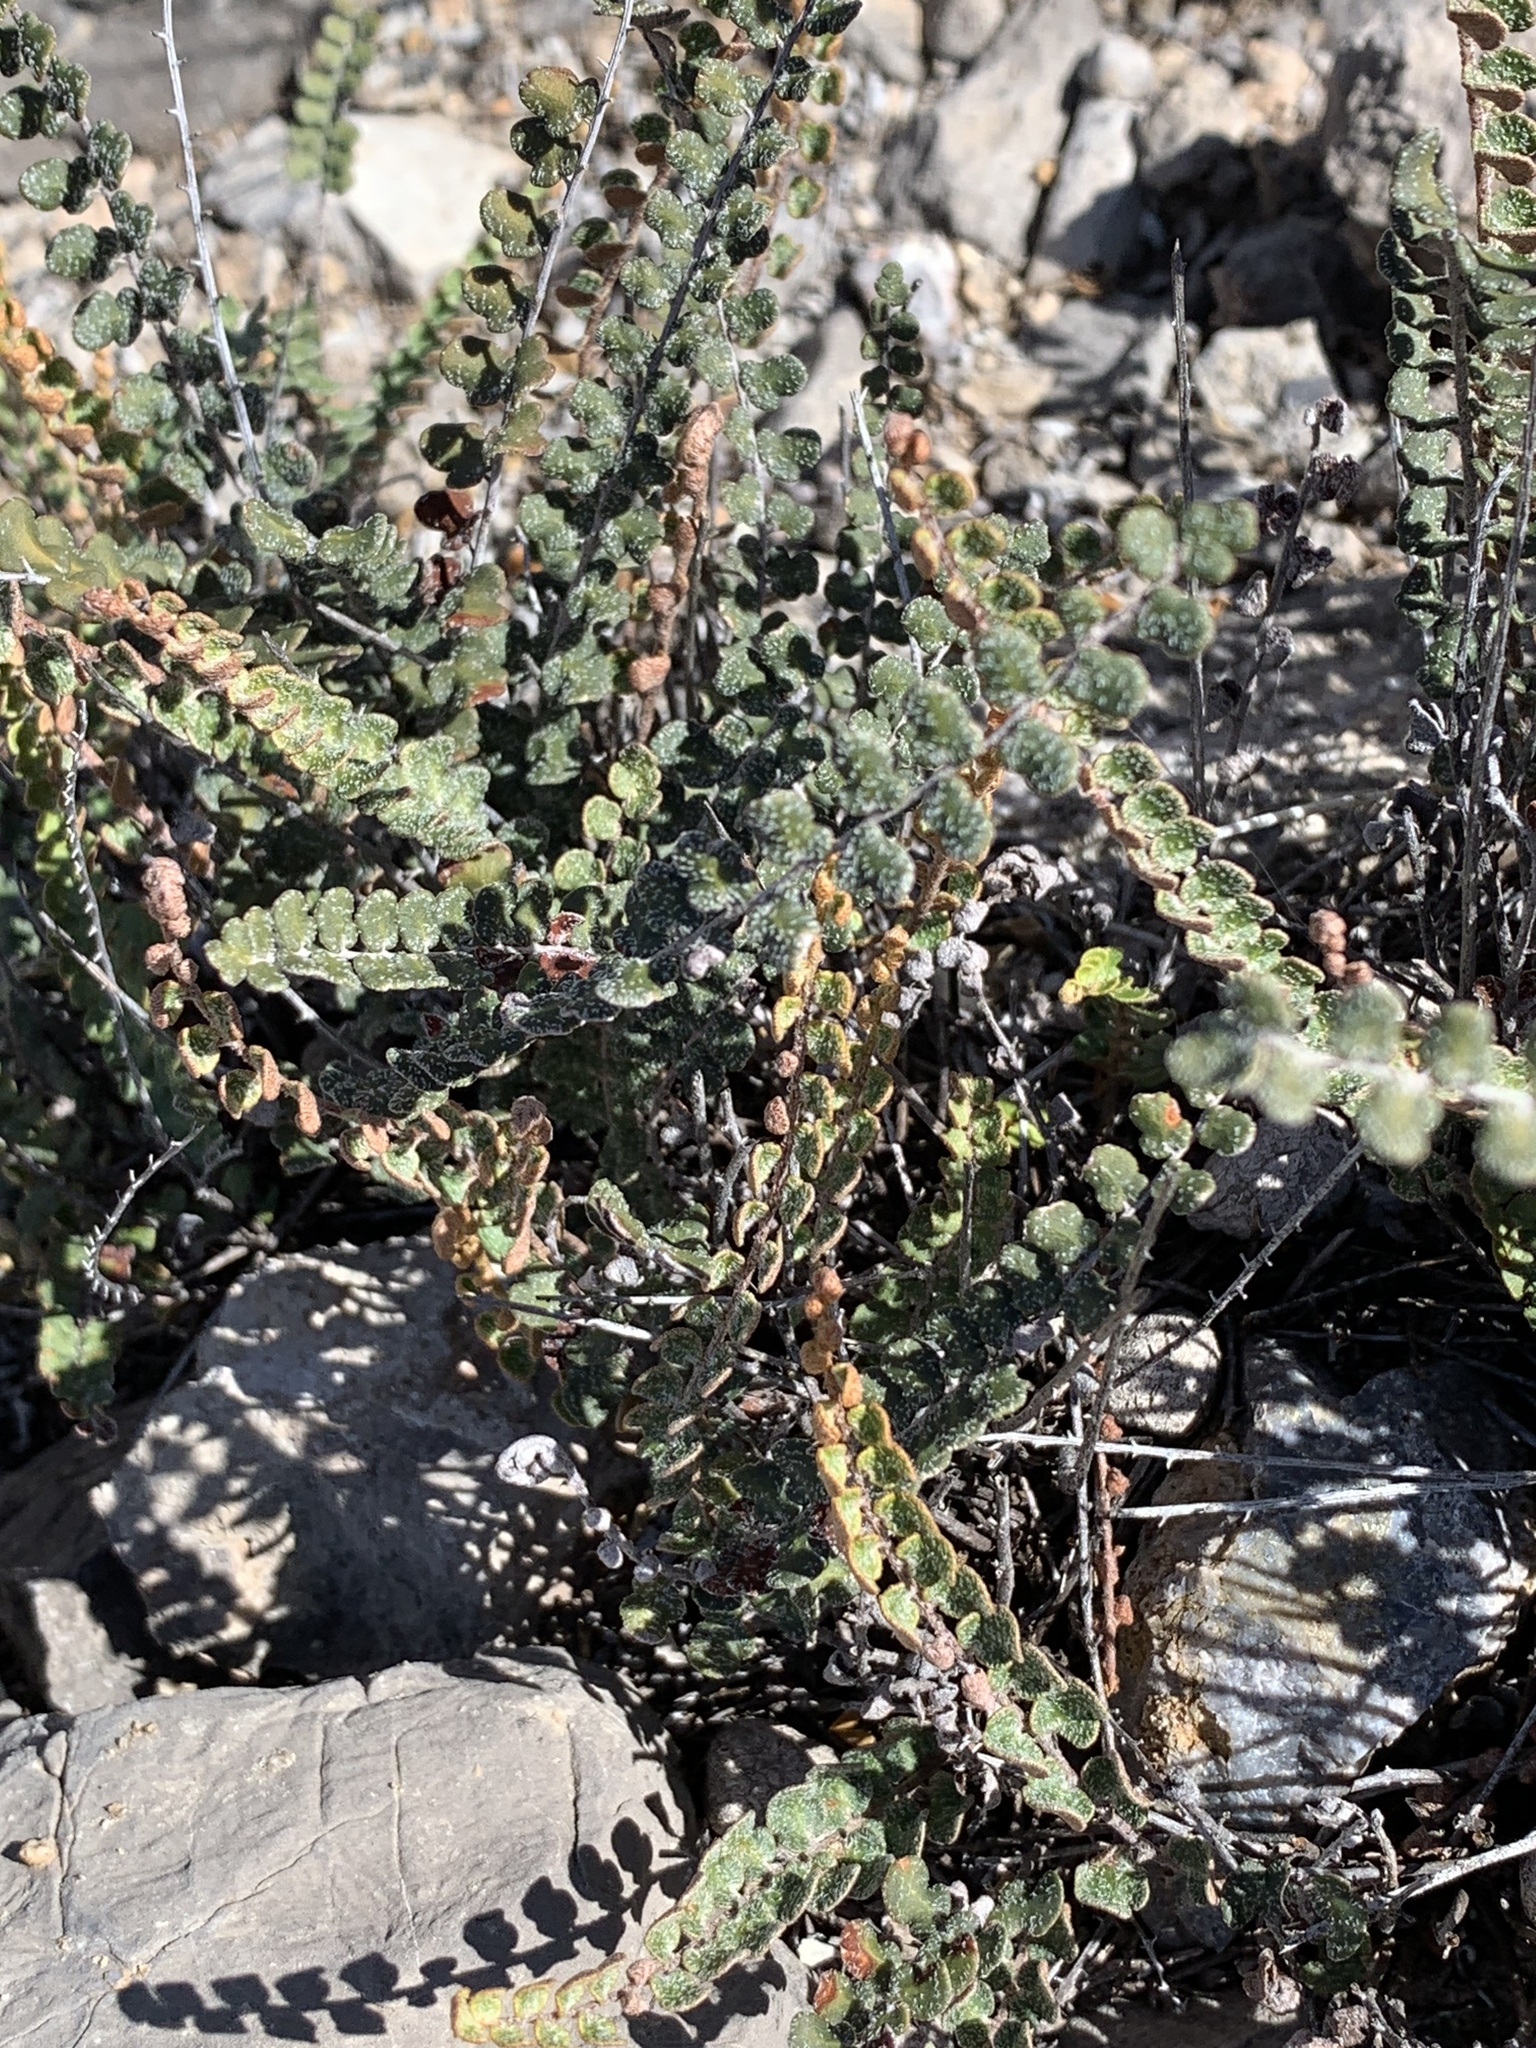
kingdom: Plantae
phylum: Tracheophyta
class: Polypodiopsida
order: Polypodiales
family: Pteridaceae
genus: Astrolepis
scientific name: Astrolepis cochisensis
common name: Scaly cloak fern
